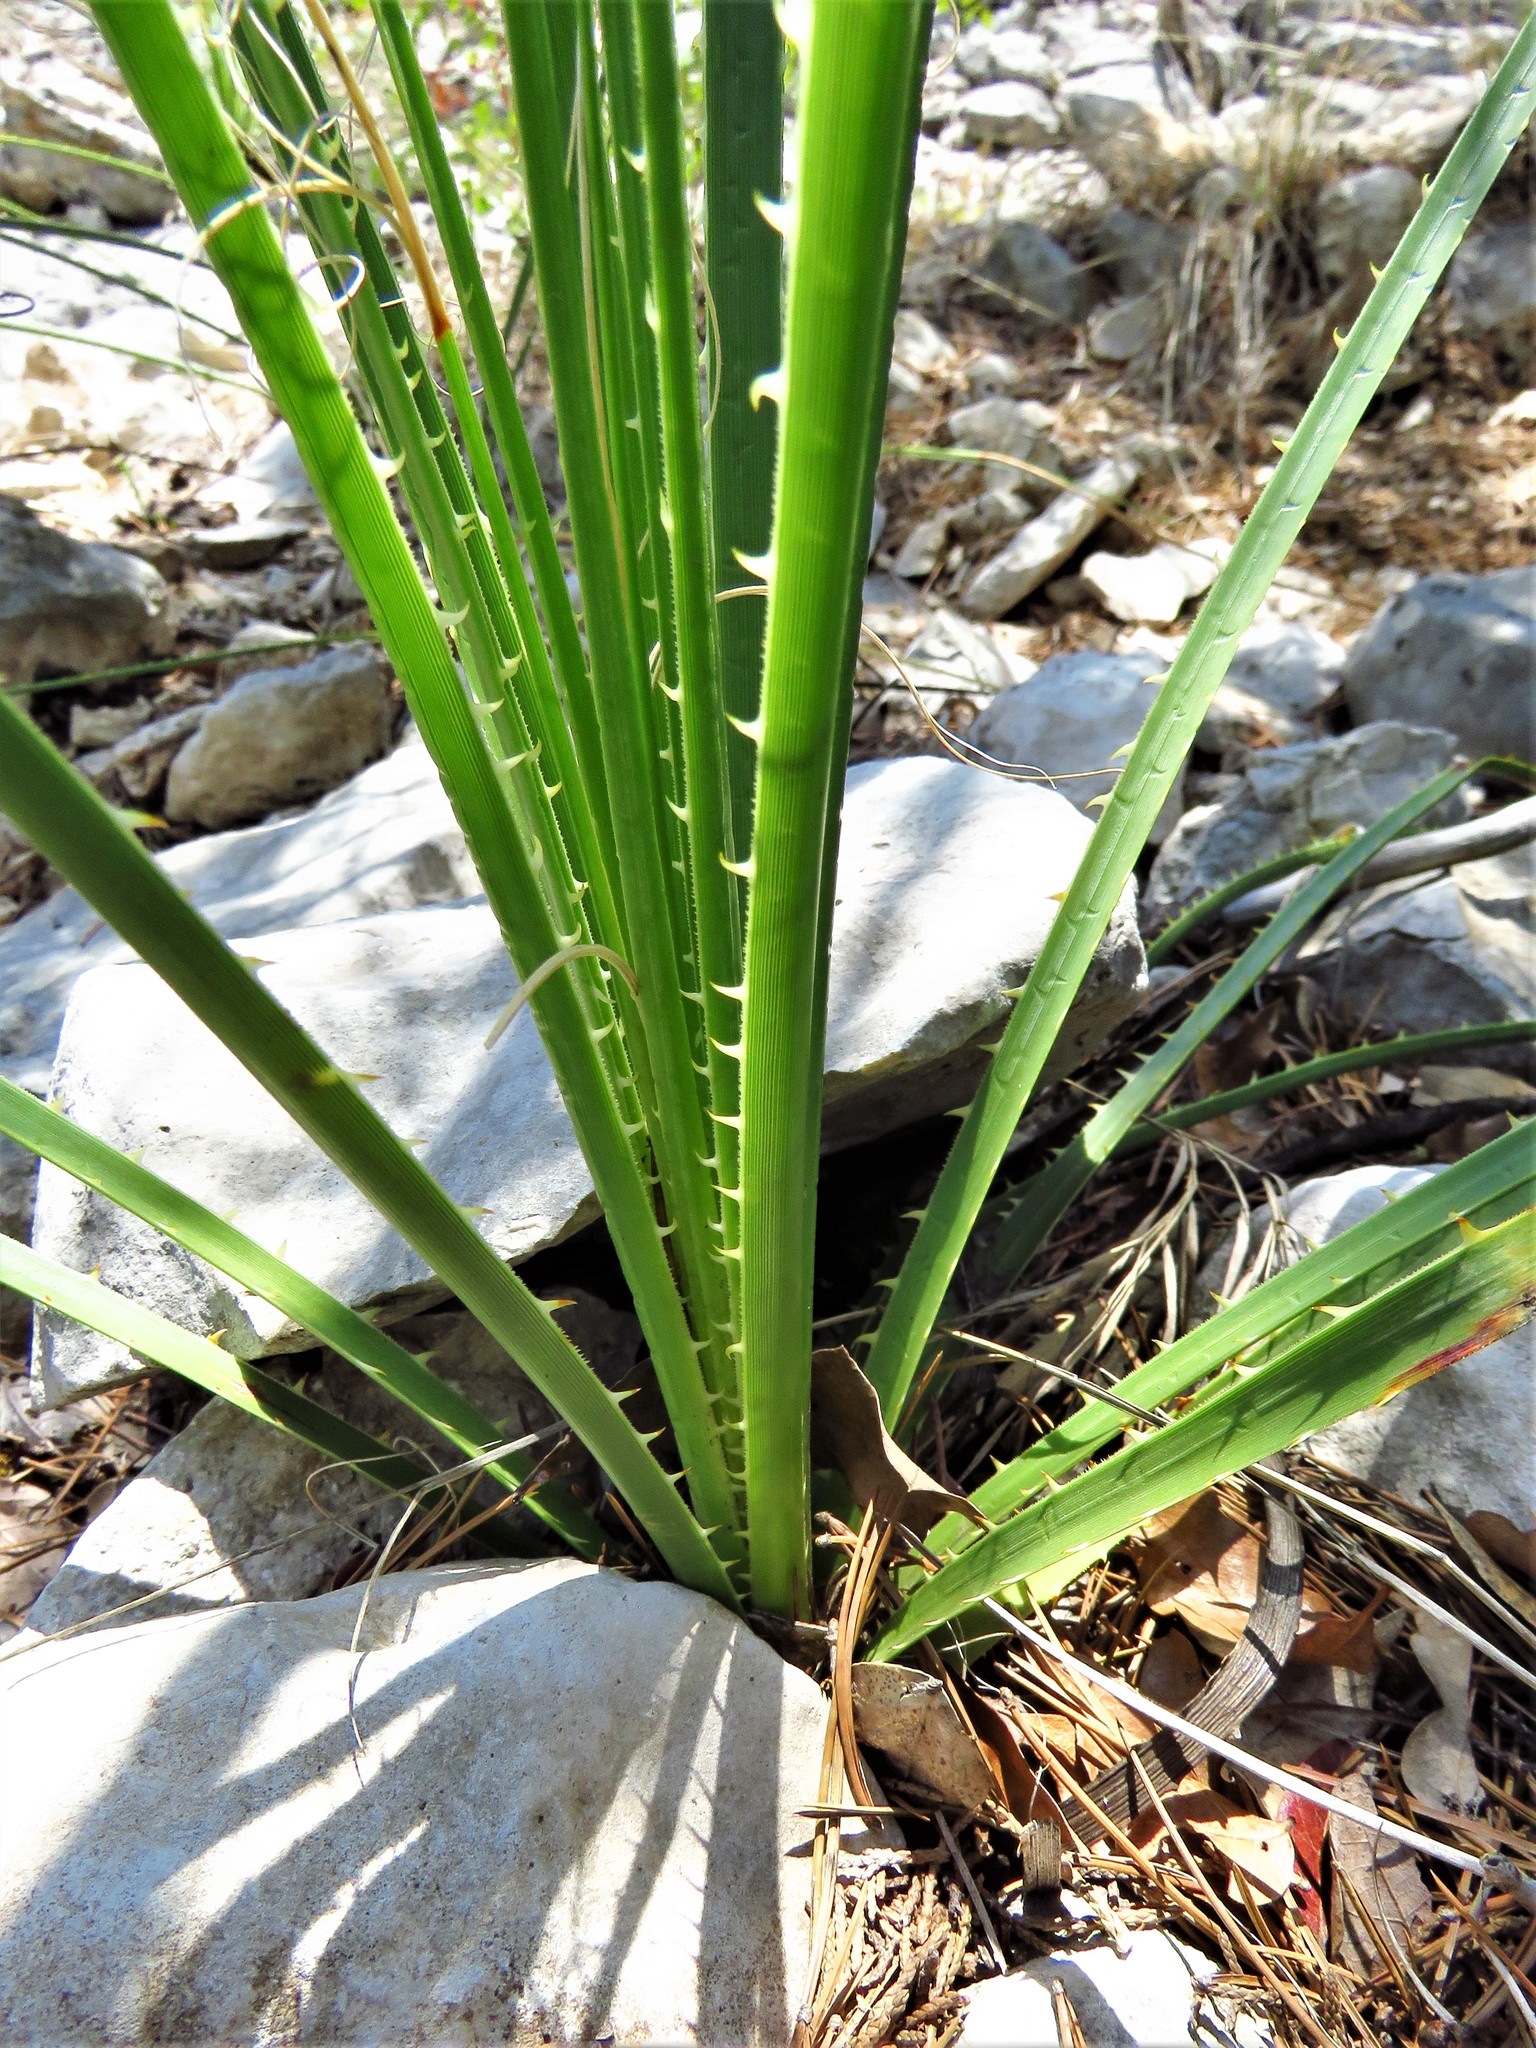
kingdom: Plantae
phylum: Tracheophyta
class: Liliopsida
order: Asparagales
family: Asparagaceae
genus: Dasylirion
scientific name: Dasylirion texanum
